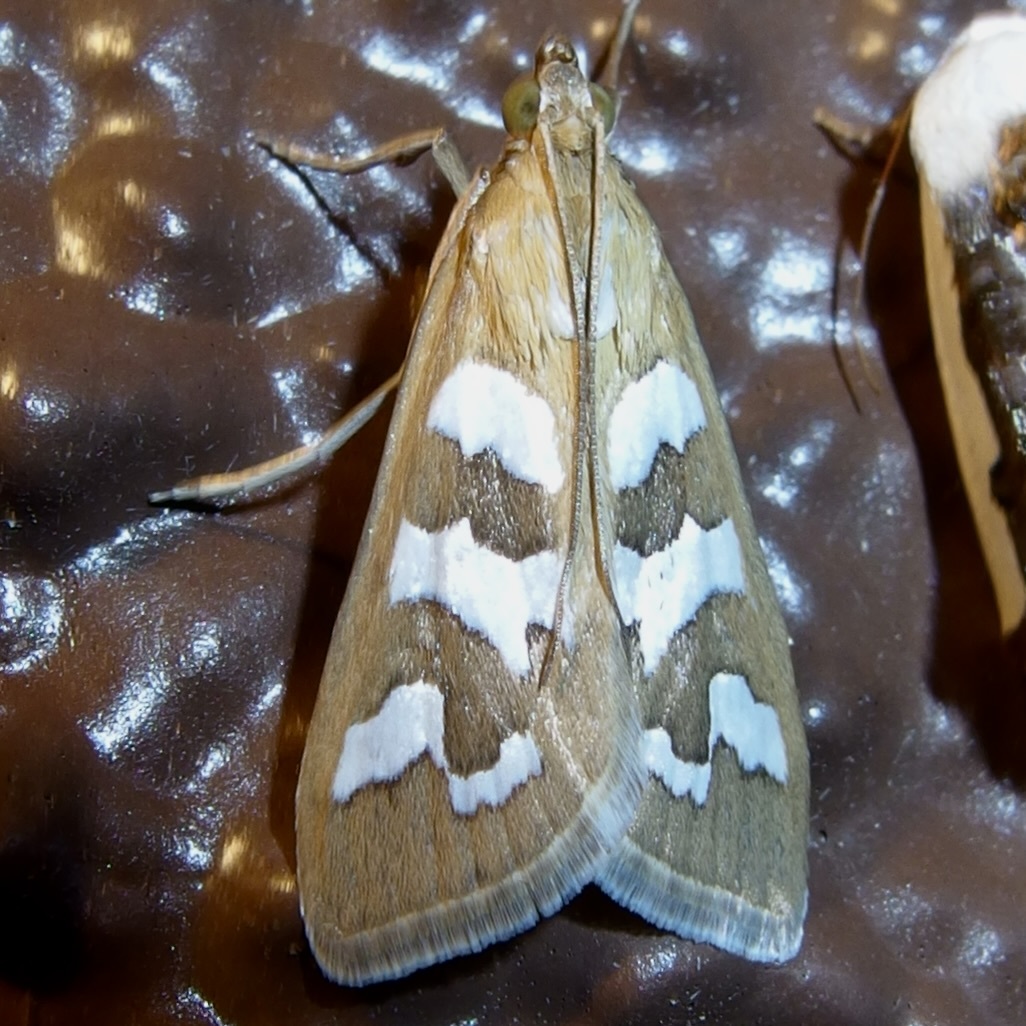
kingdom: Animalia
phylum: Arthropoda
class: Insecta
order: Lepidoptera
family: Crambidae
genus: Diastictis
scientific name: Diastictis fracturalis
